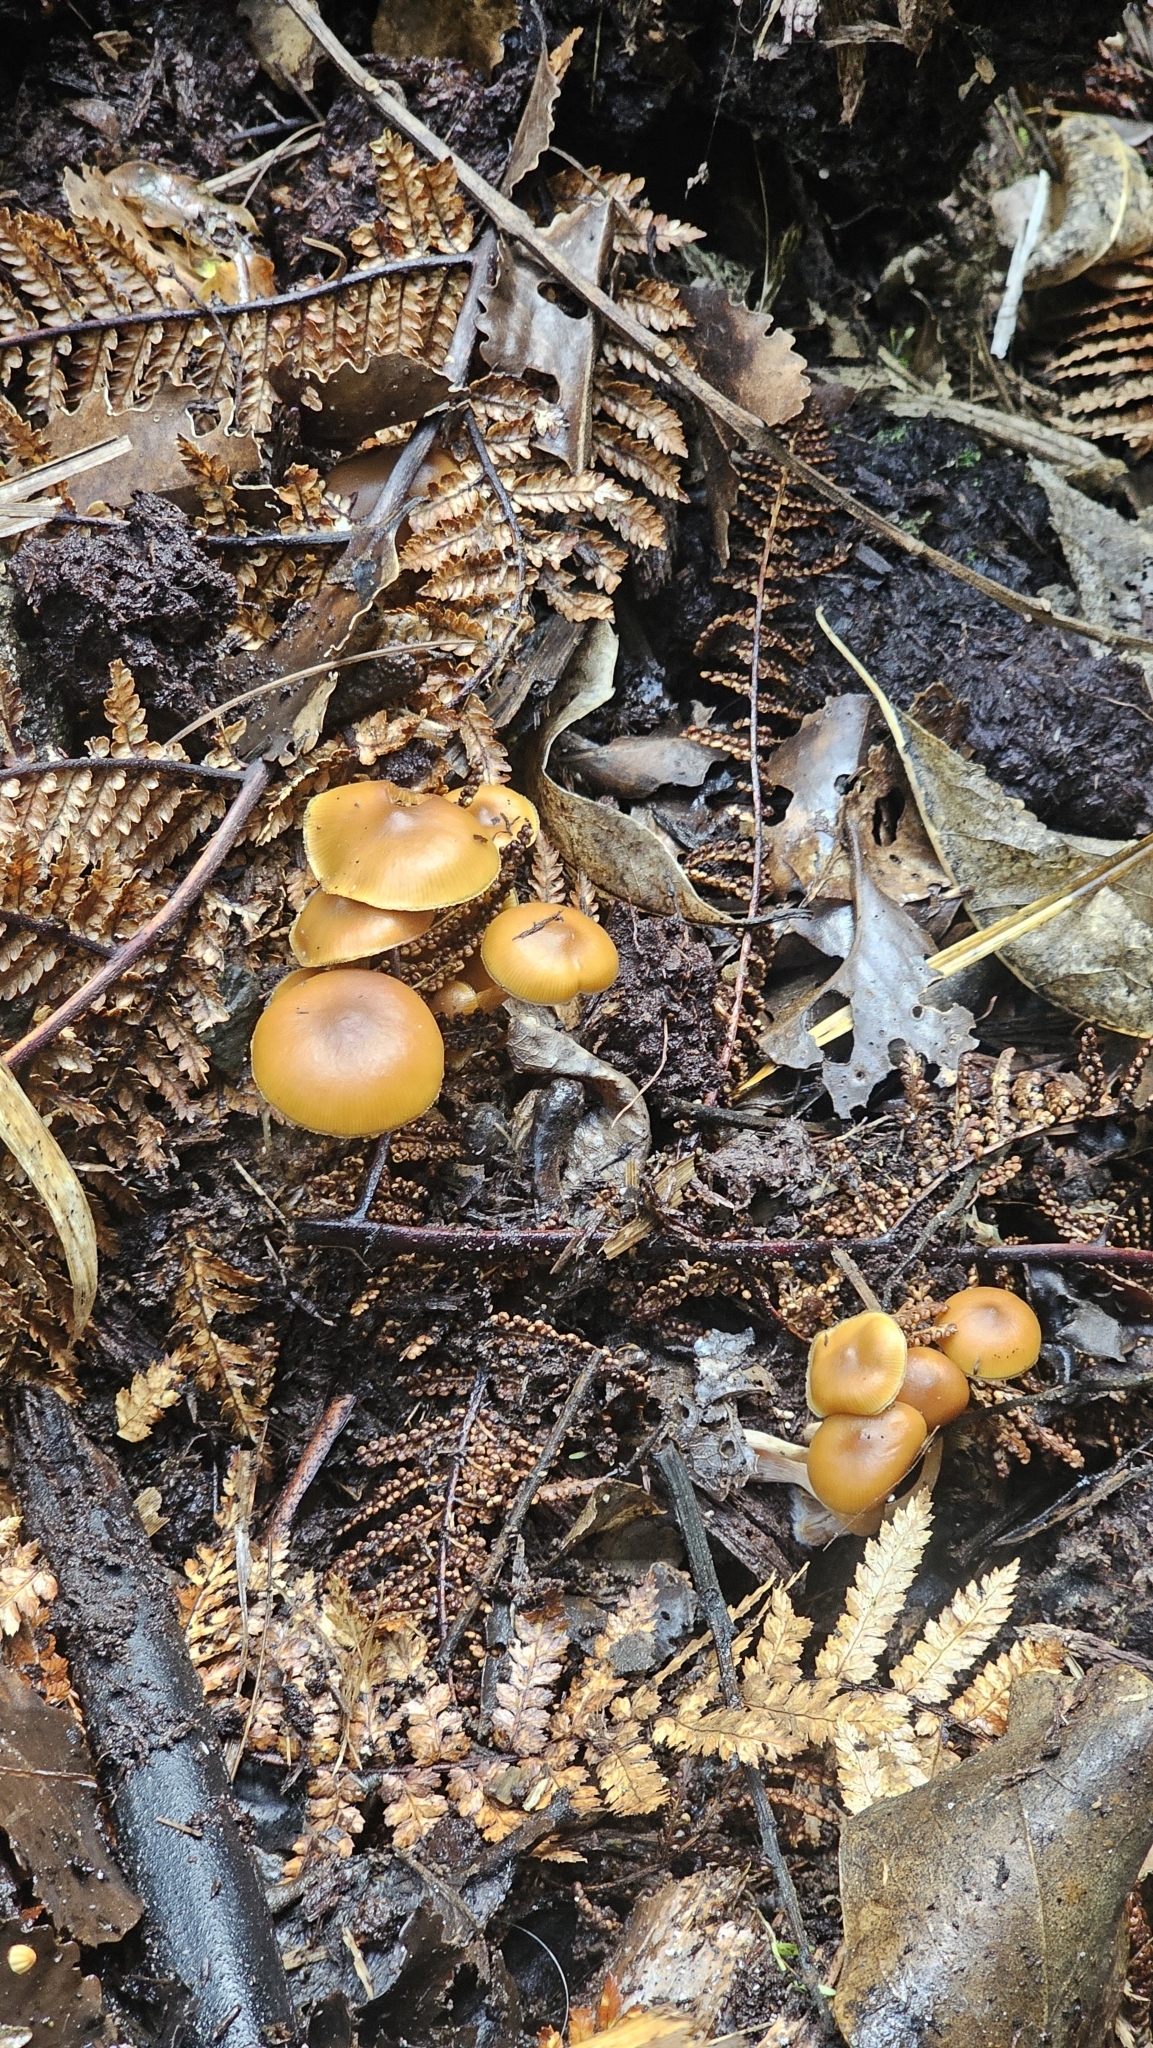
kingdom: Fungi
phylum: Basidiomycota
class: Agaricomycetes
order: Agaricales
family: Hymenogastraceae
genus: Galerina
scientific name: Galerina patagonica
